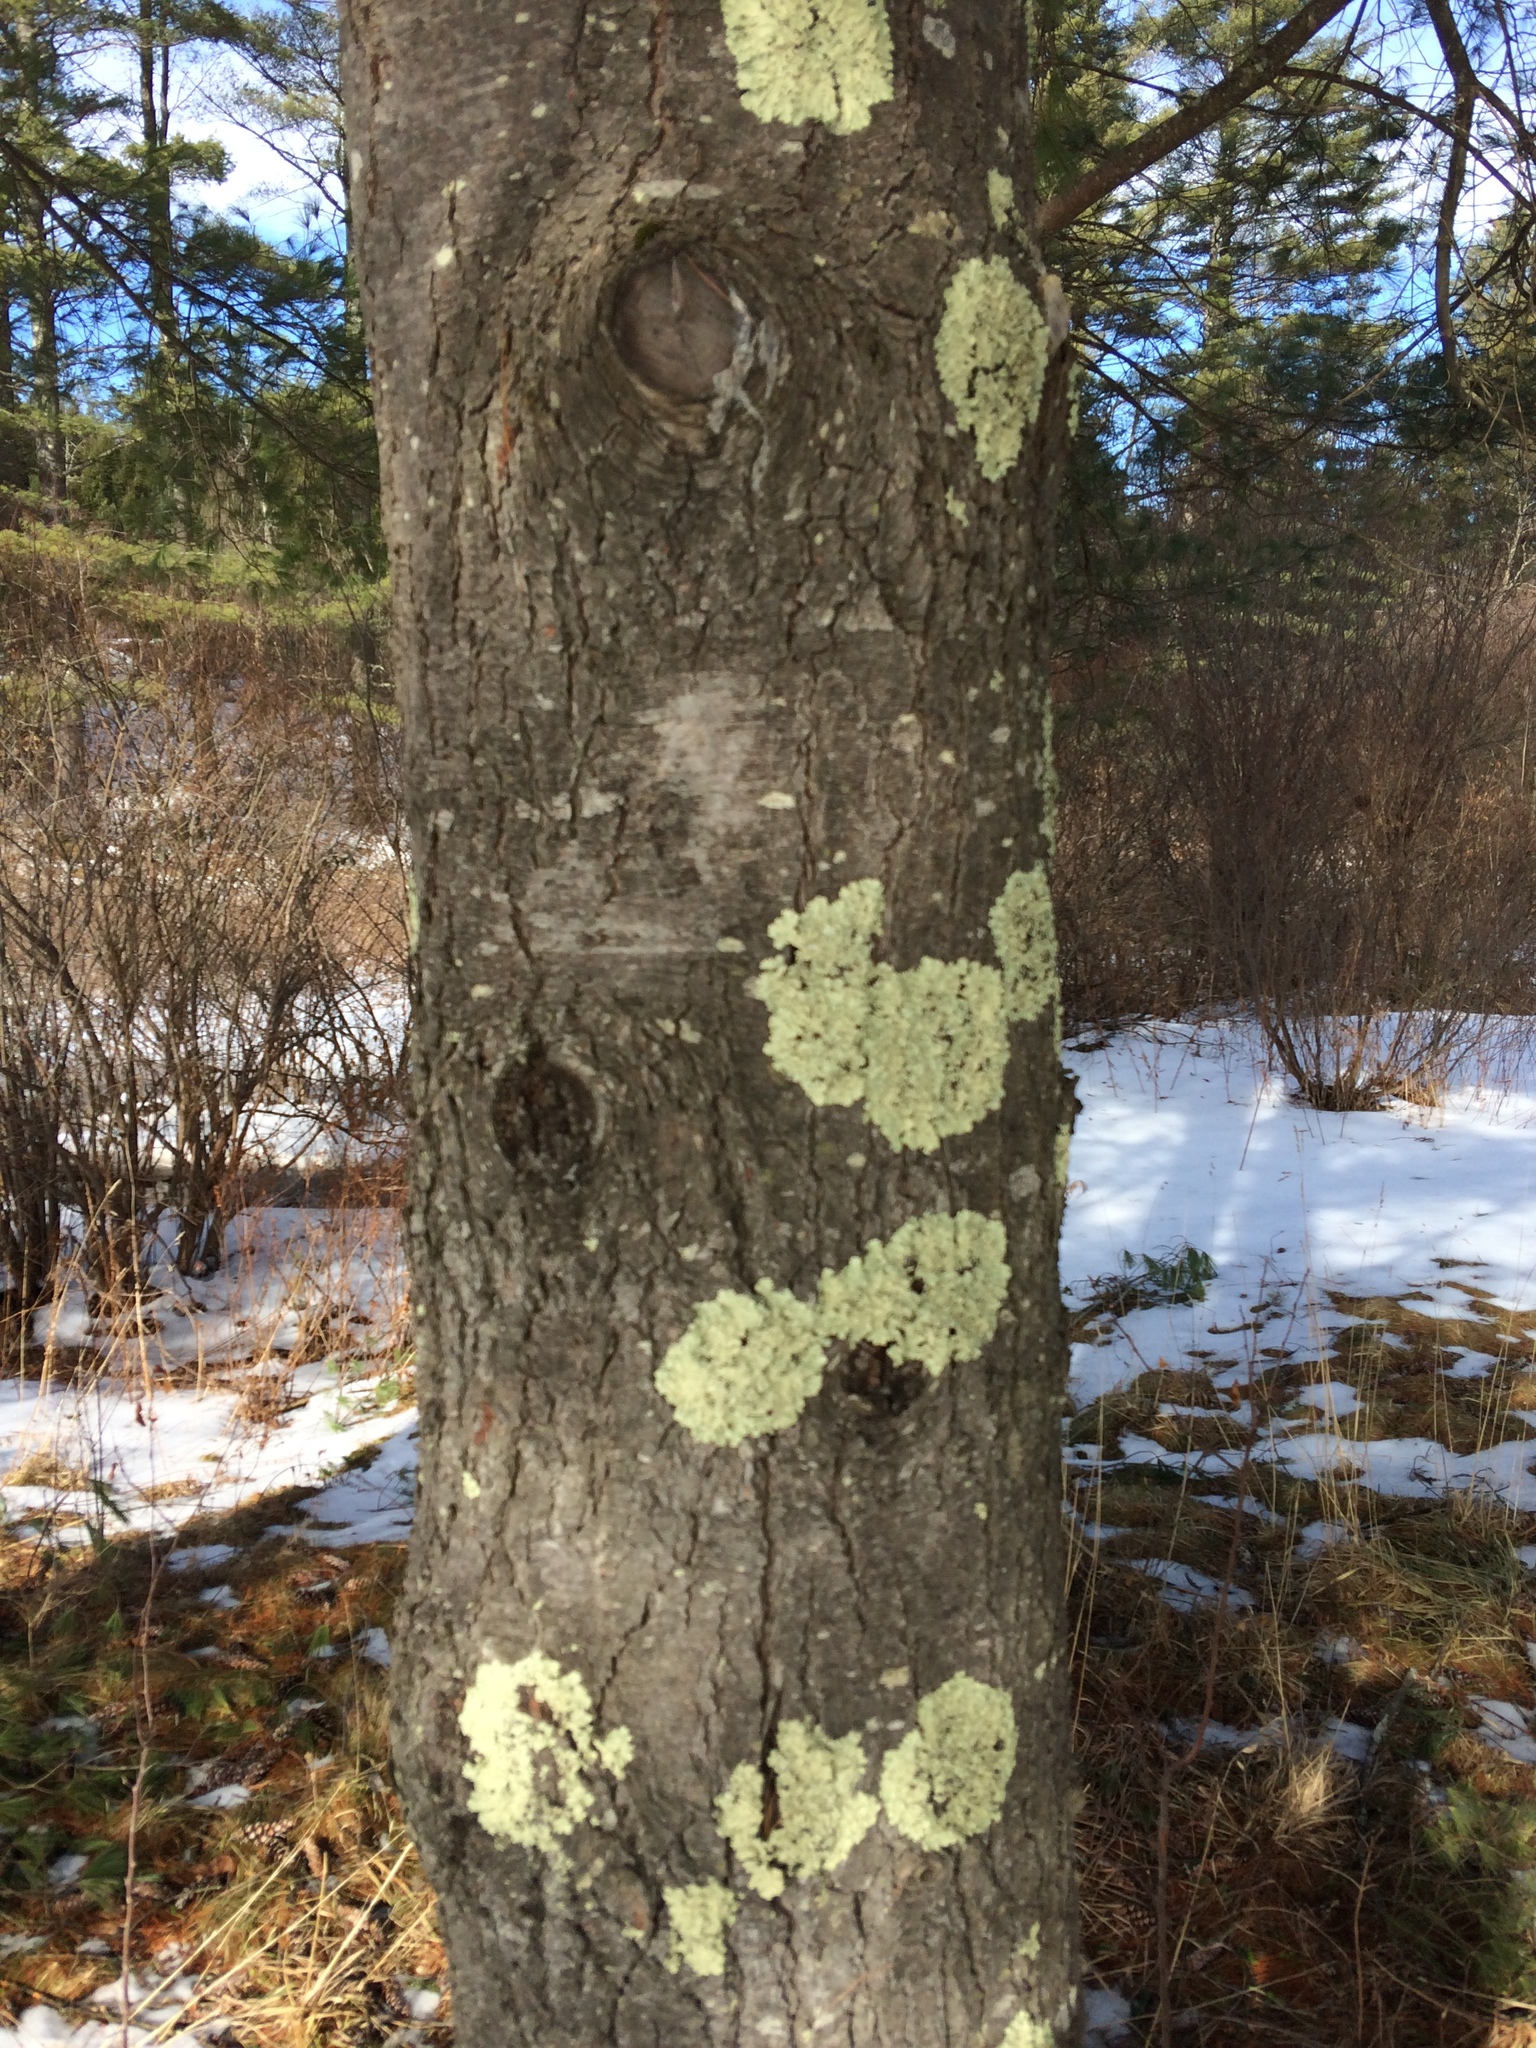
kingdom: Fungi
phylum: Ascomycota
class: Lecanoromycetes
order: Lecanorales
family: Parmeliaceae
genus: Flavoparmelia
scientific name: Flavoparmelia caperata
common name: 40-mile per hour lichen
